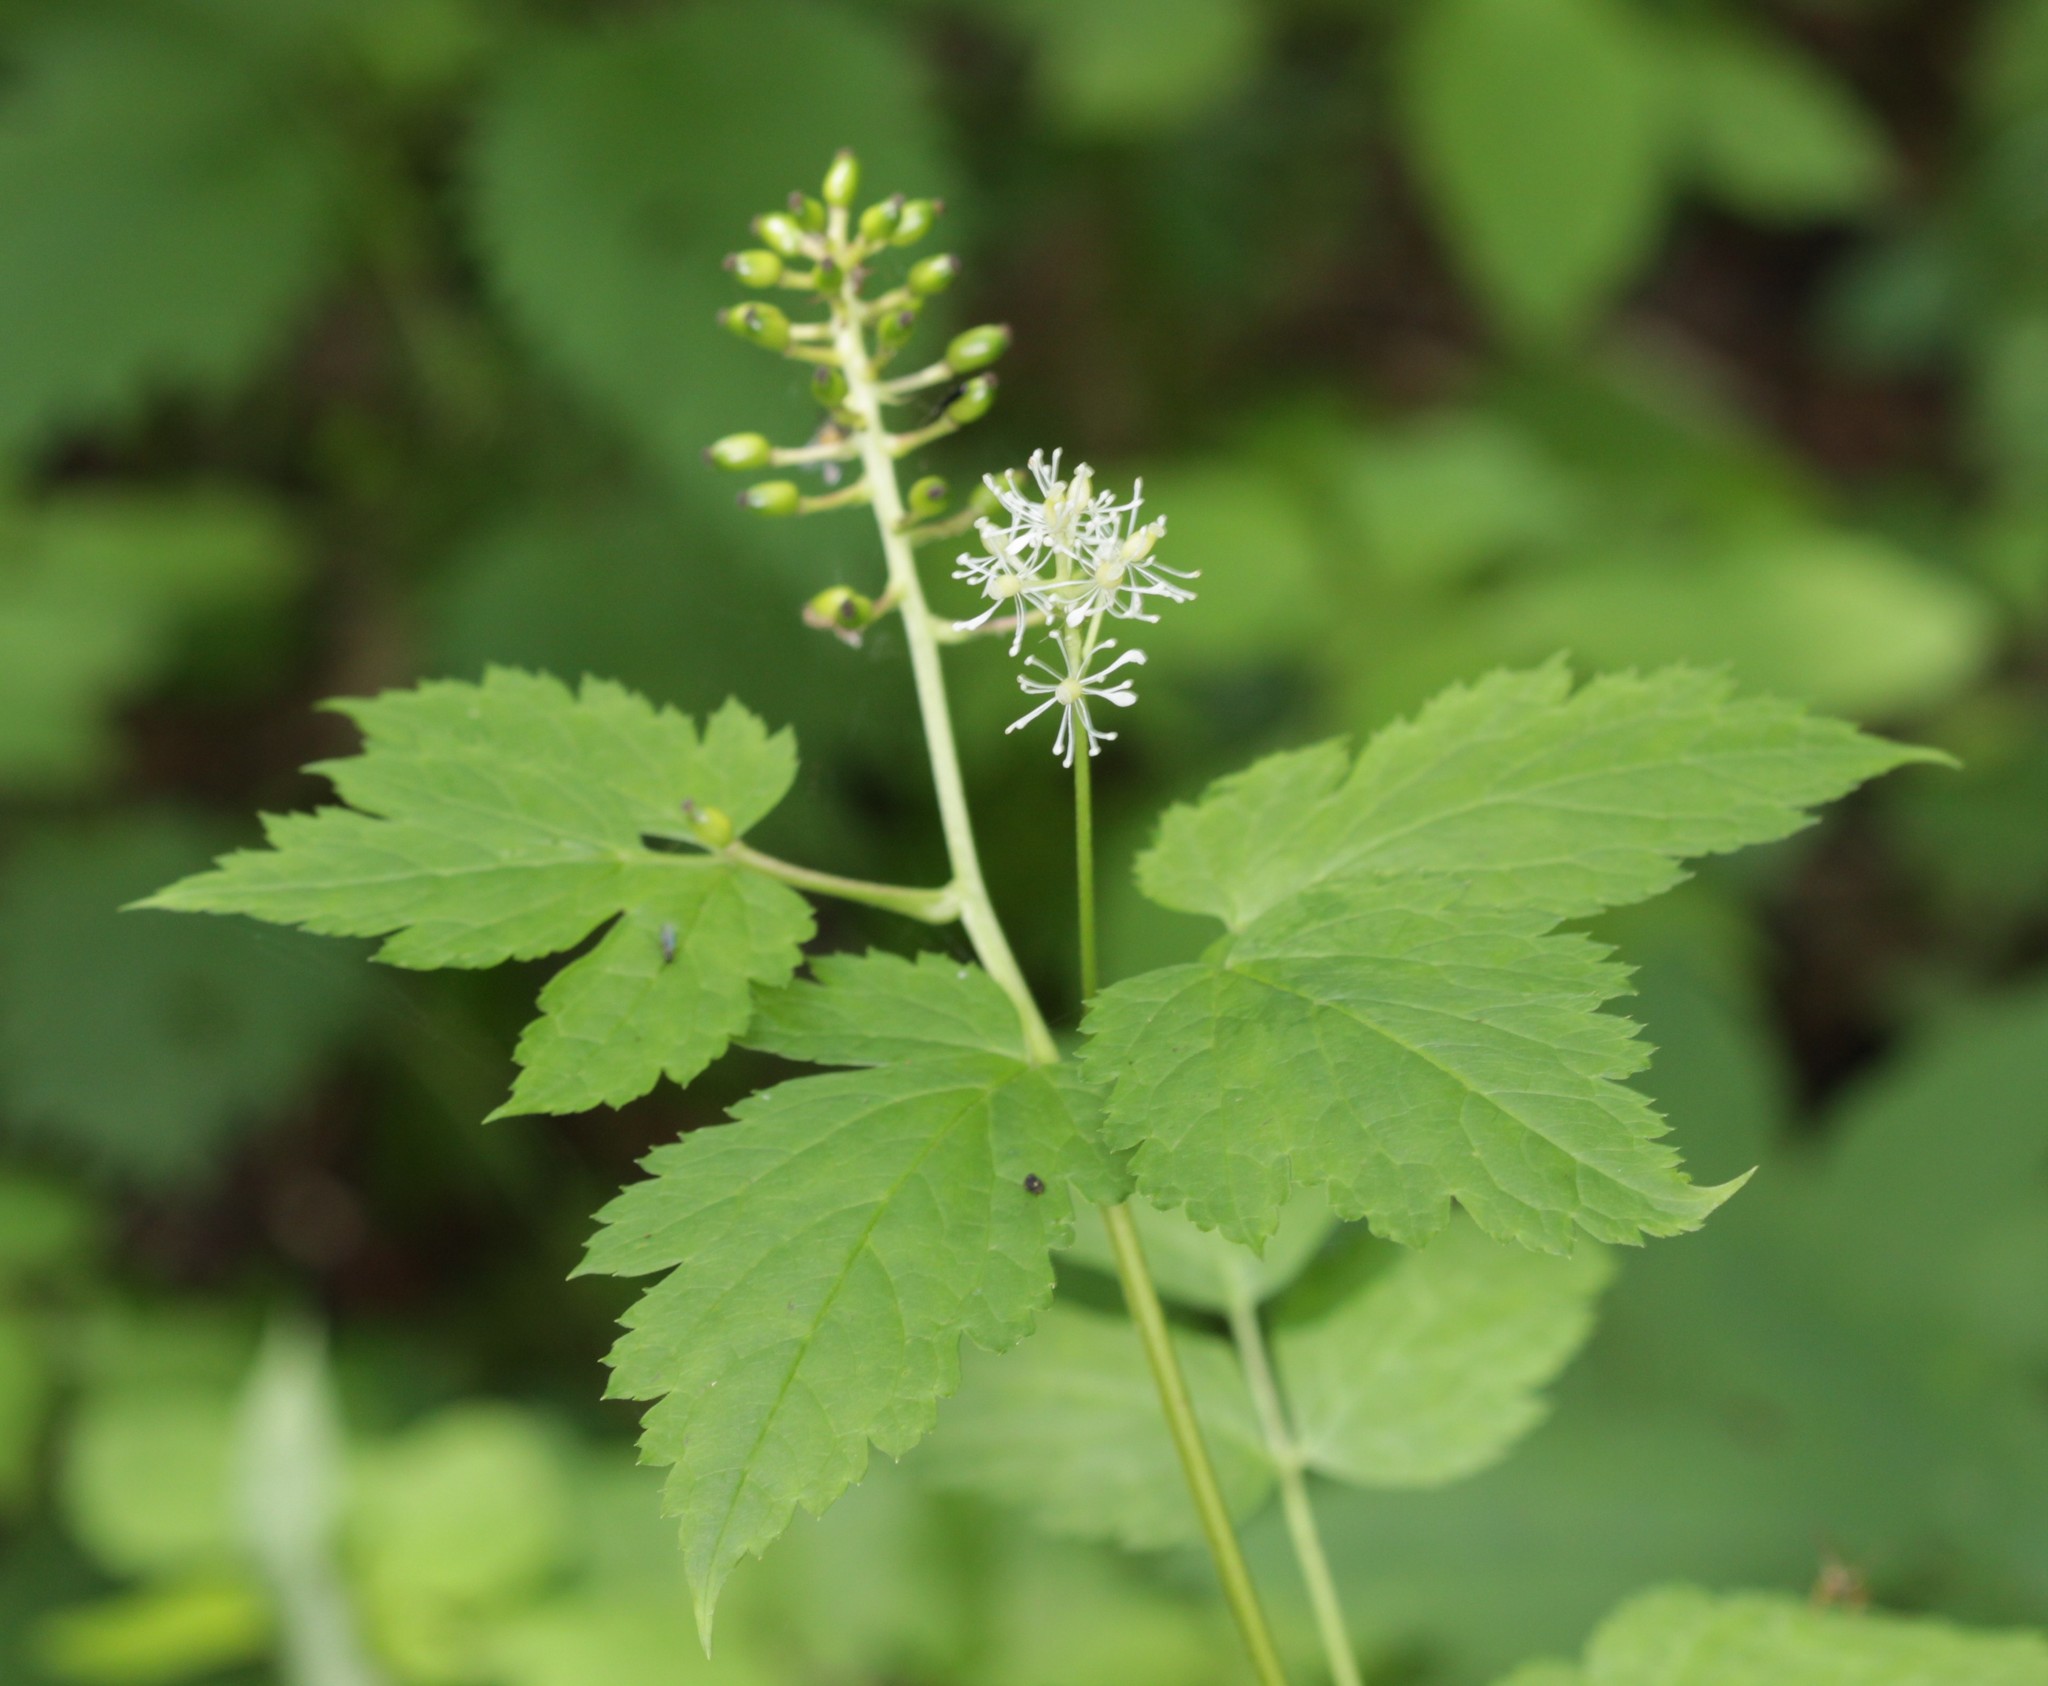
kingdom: Plantae
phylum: Tracheophyta
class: Magnoliopsida
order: Ranunculales
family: Ranunculaceae
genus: Actaea
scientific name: Actaea spicata
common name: Baneberry
